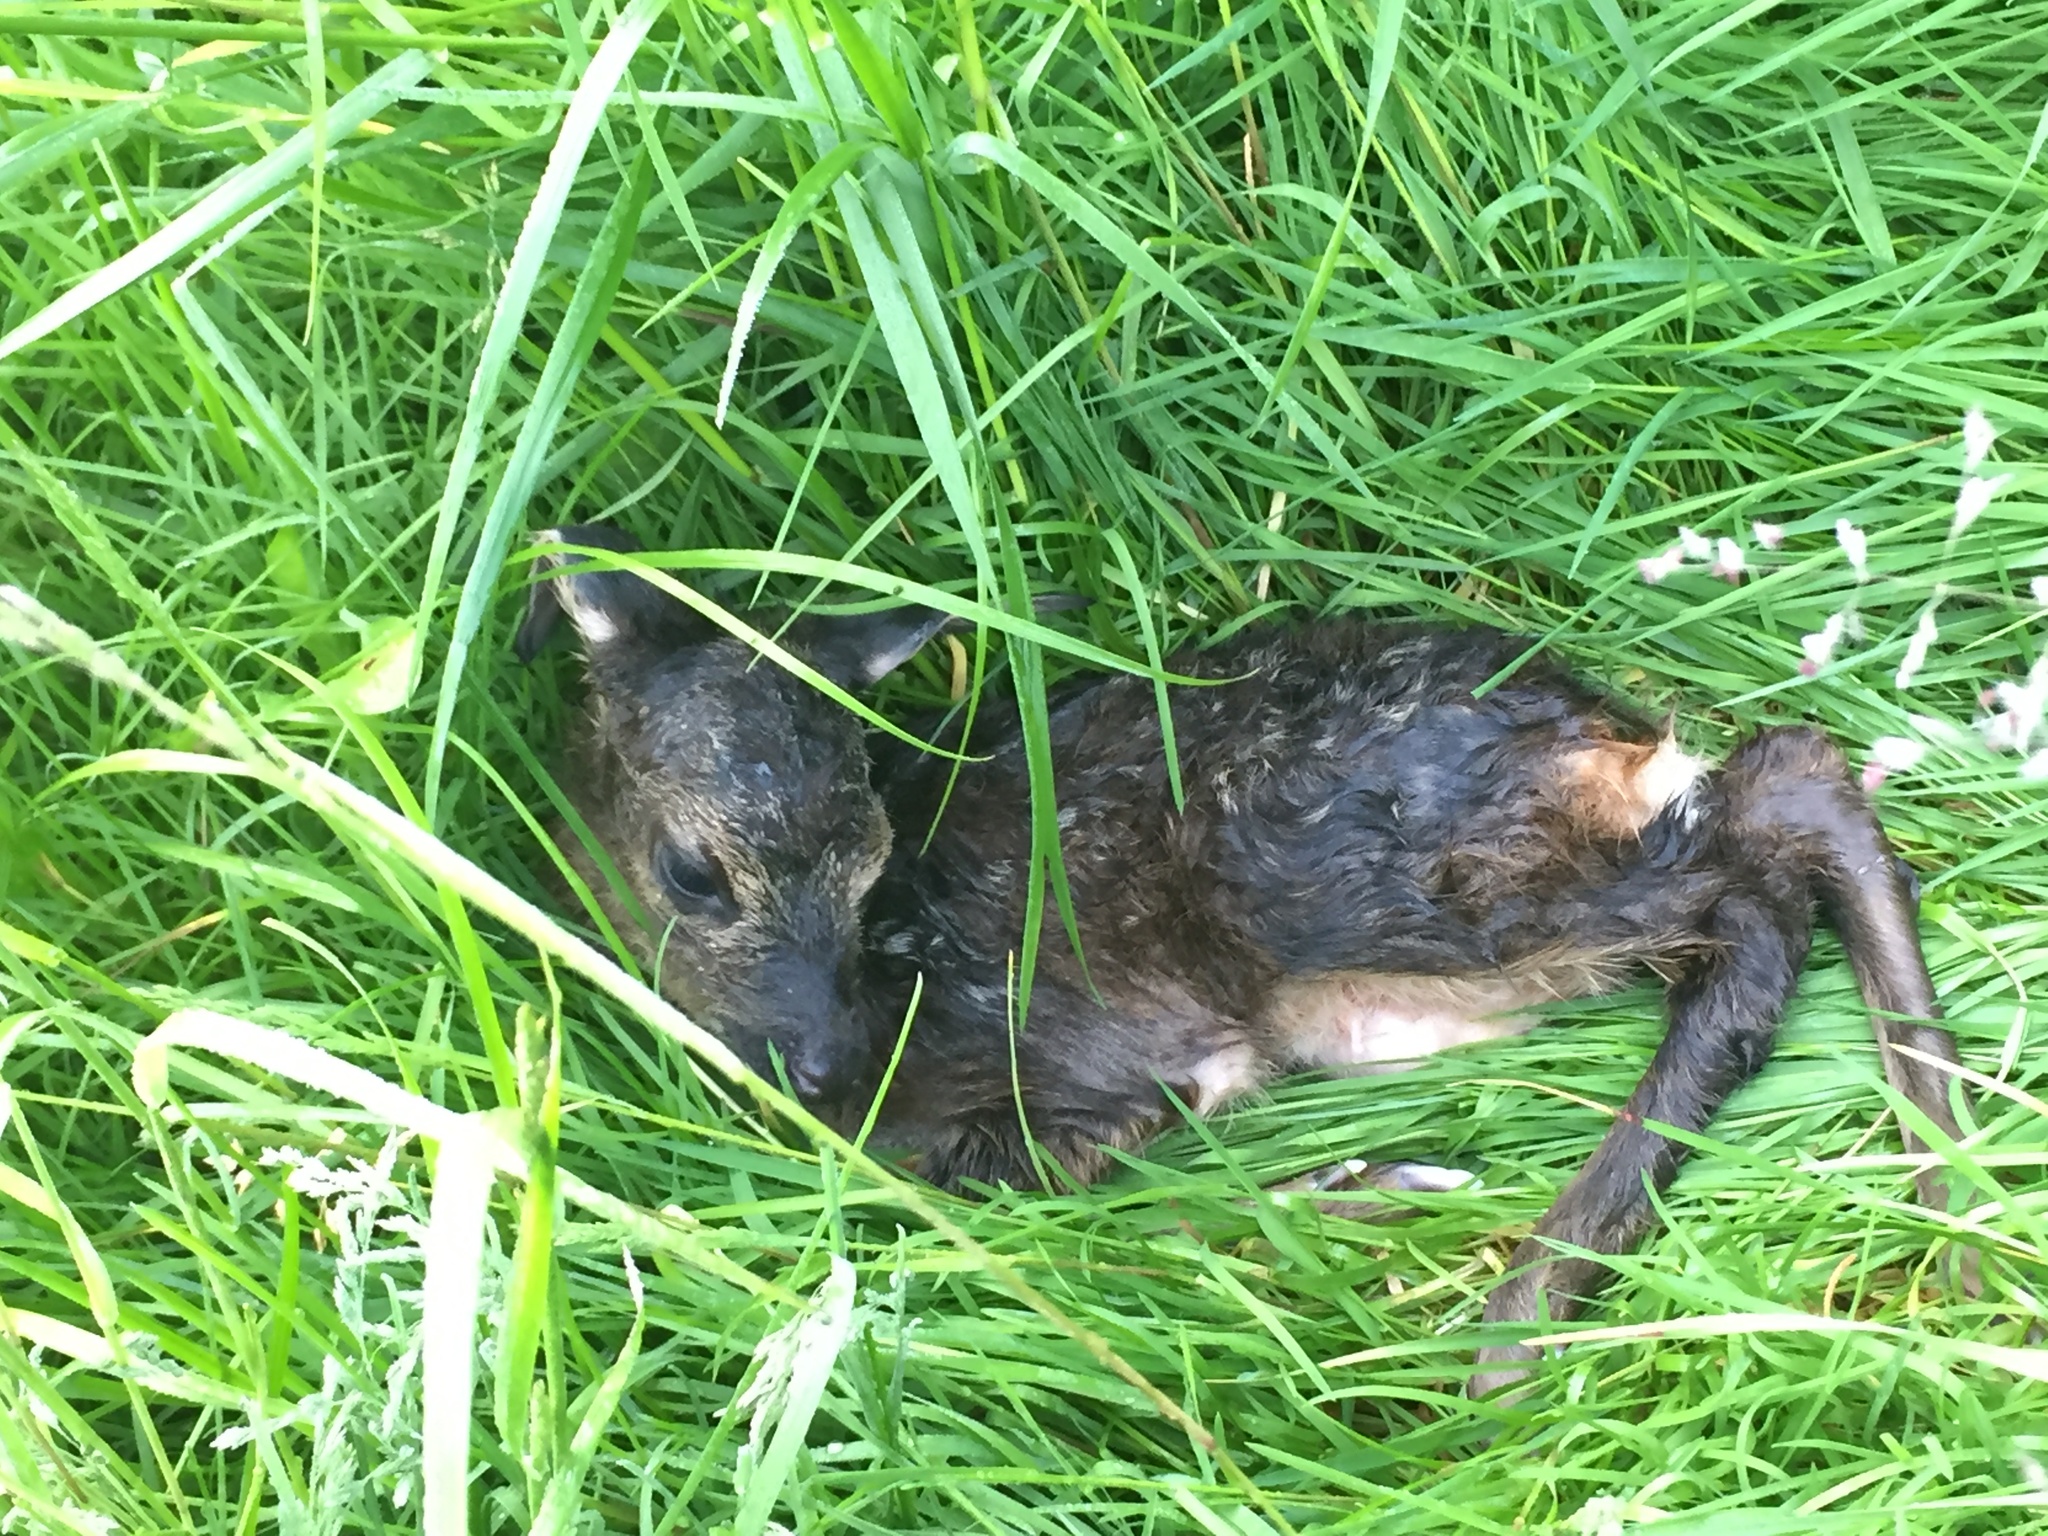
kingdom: Animalia
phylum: Chordata
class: Mammalia
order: Artiodactyla
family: Cervidae
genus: Capreolus
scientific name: Capreolus capreolus
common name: Western roe deer
